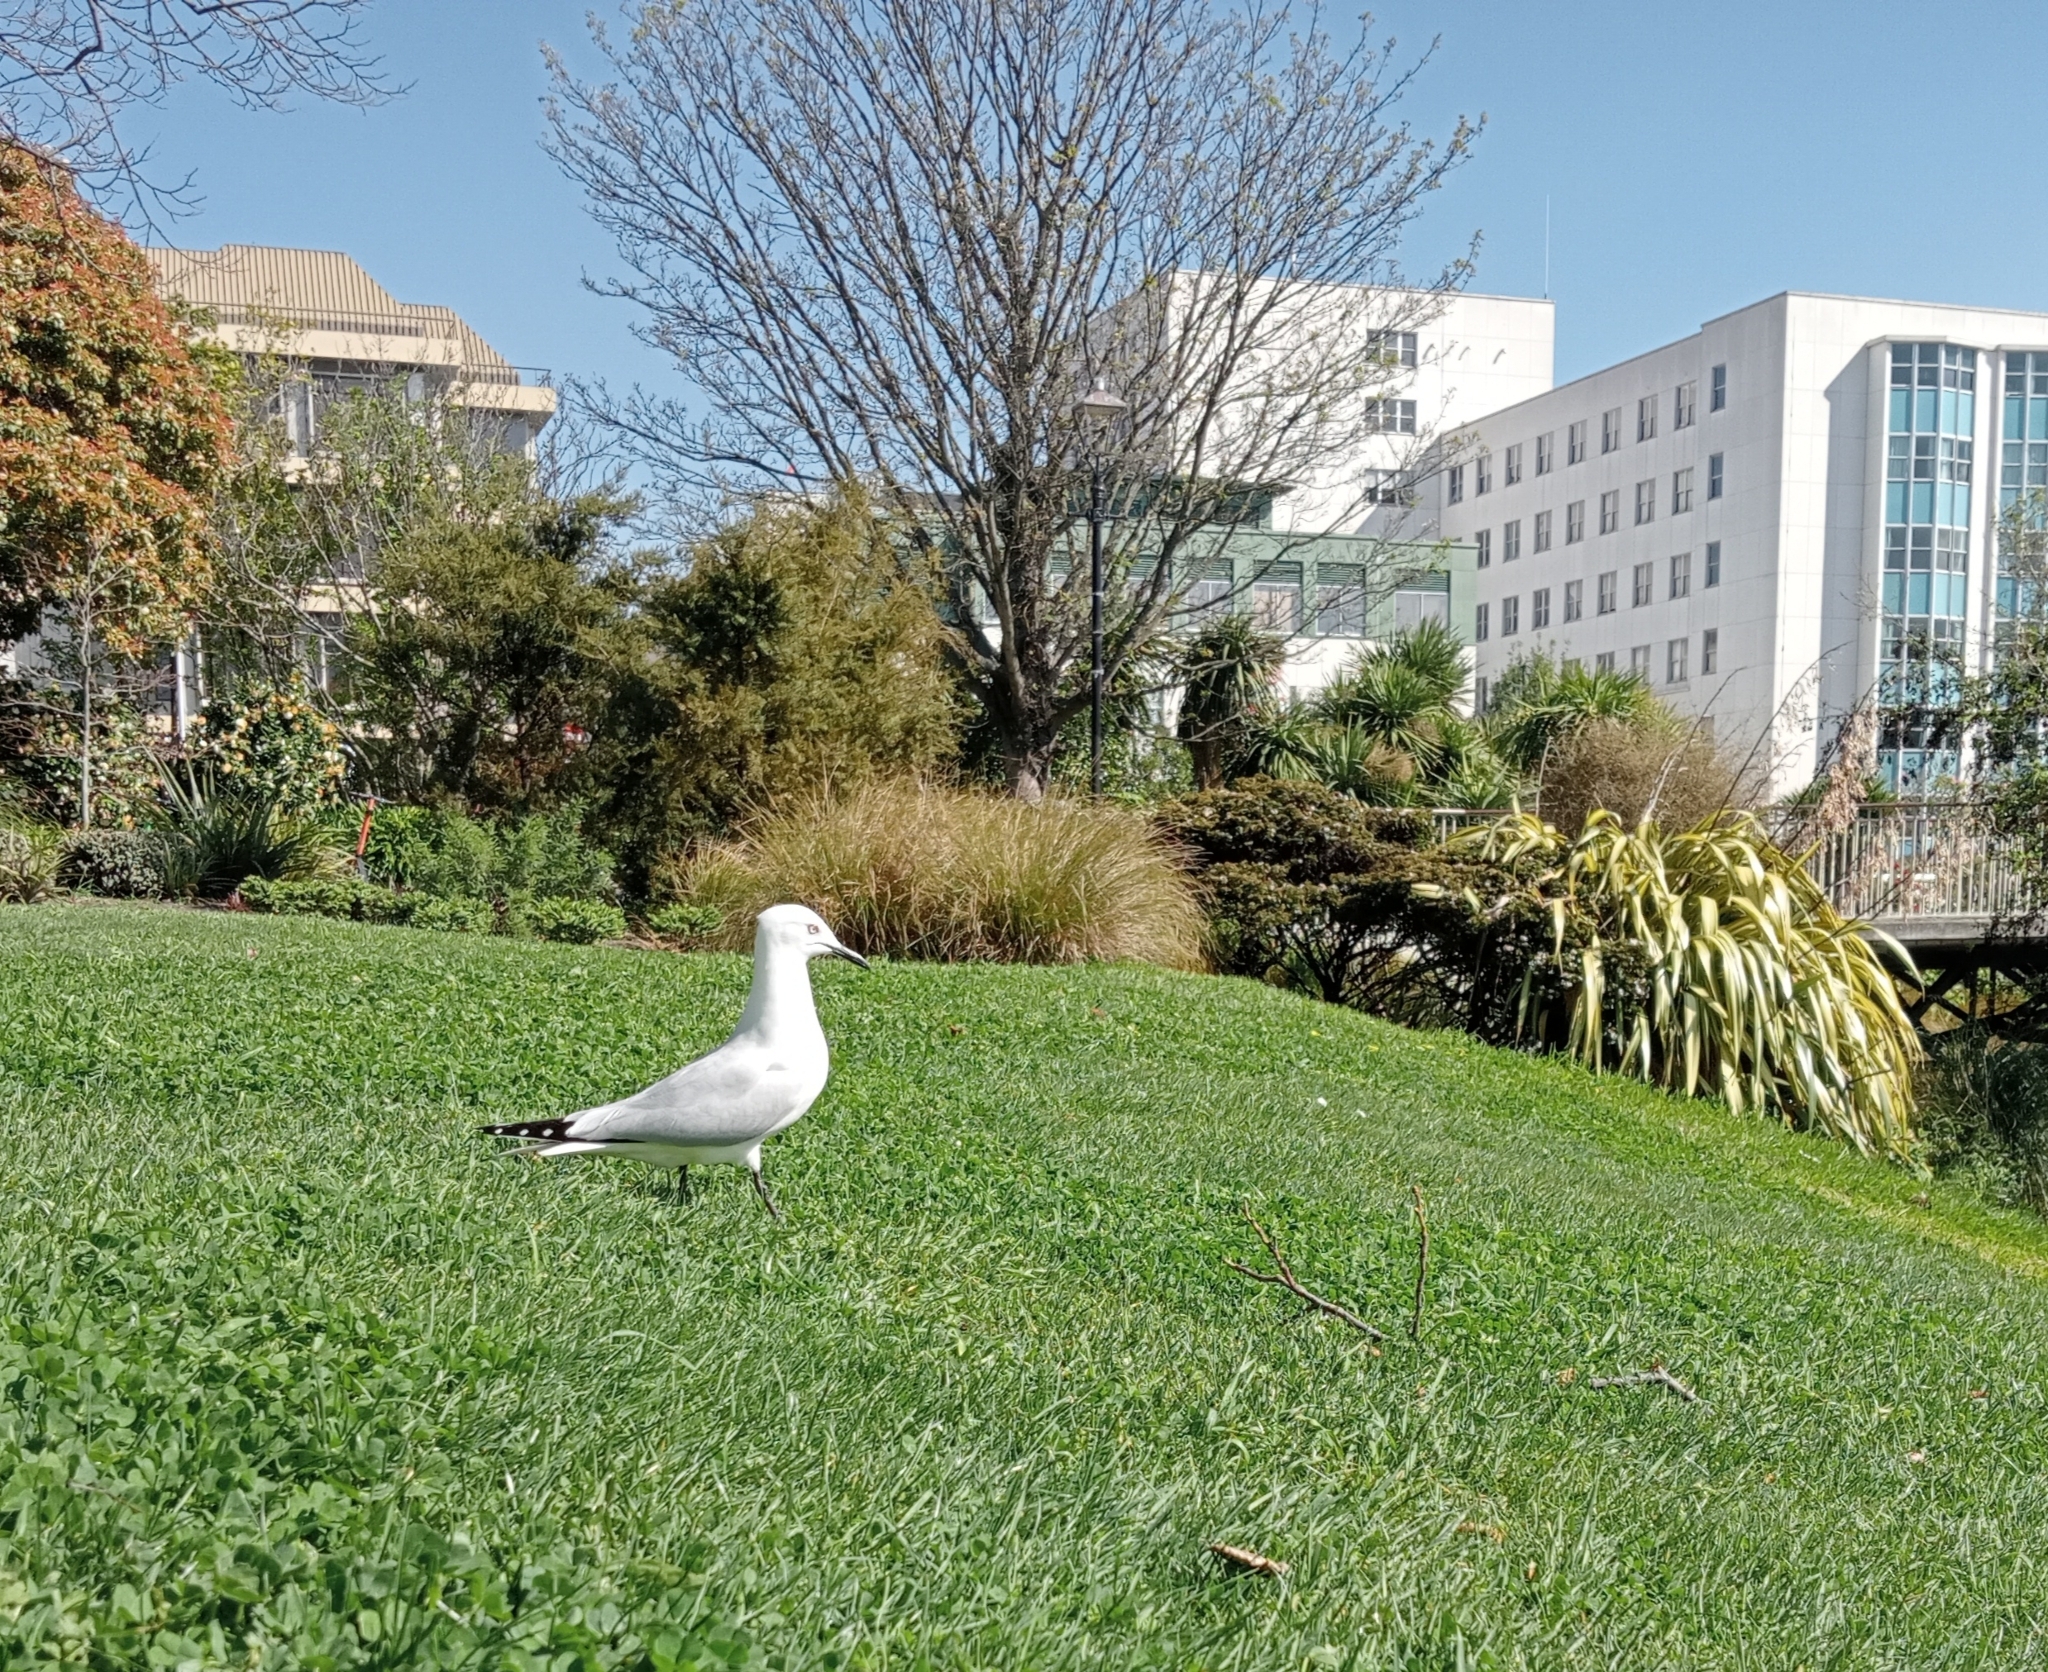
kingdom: Animalia
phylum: Chordata
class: Aves
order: Charadriiformes
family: Laridae
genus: Chroicocephalus
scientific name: Chroicocephalus bulleri
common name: Black-billed gull
